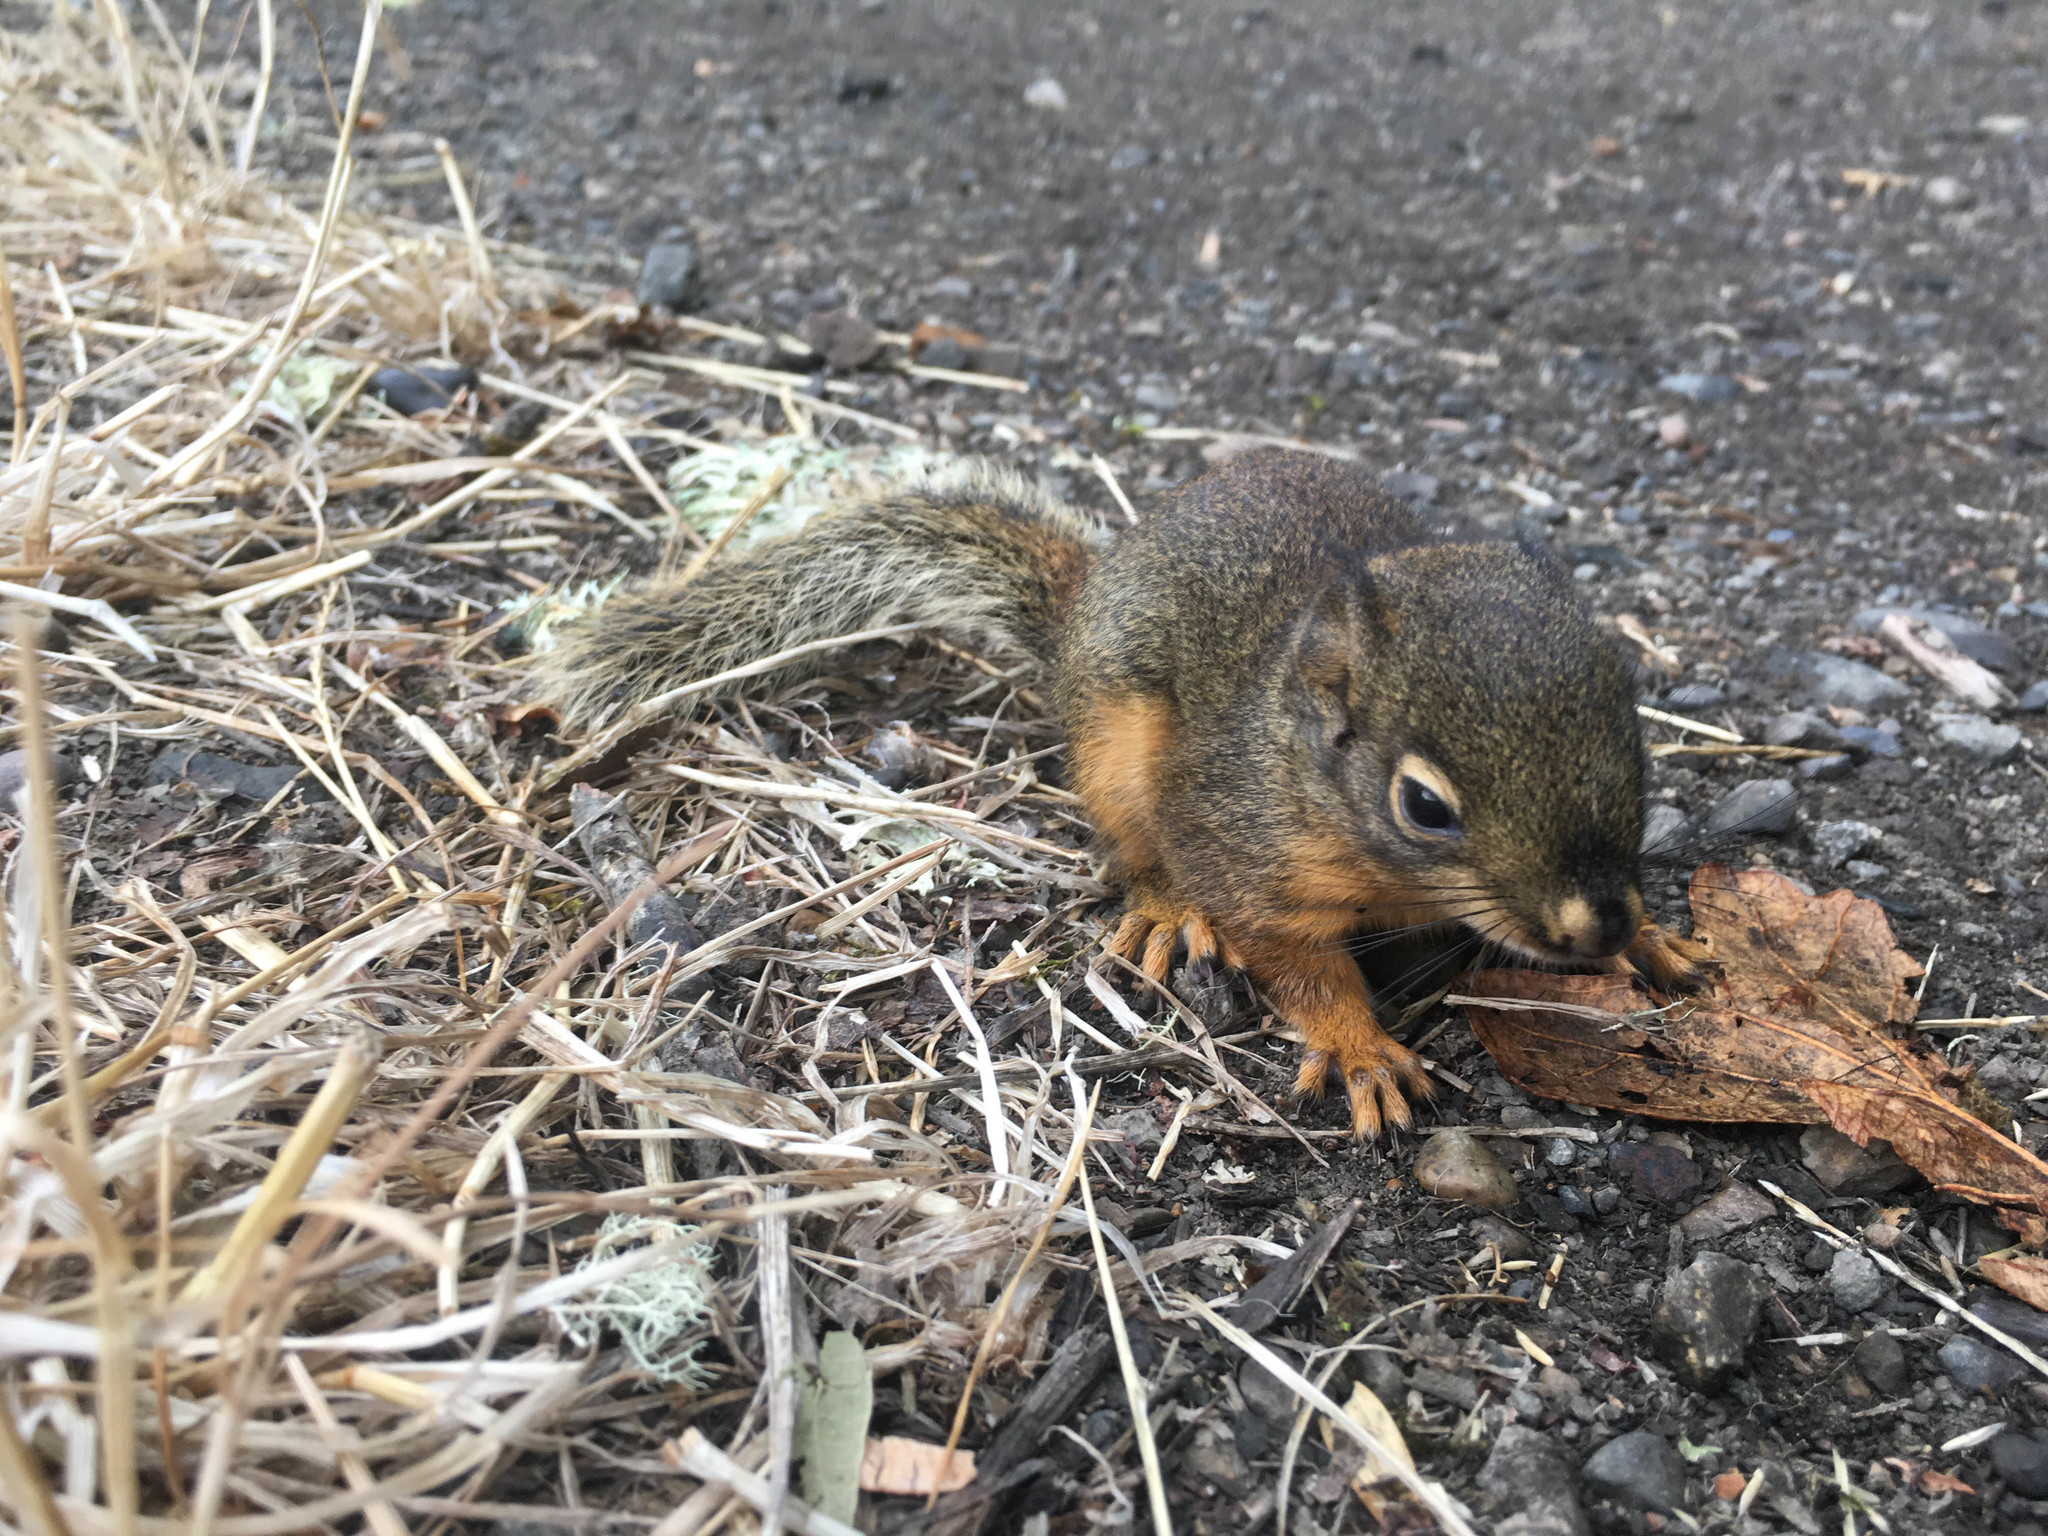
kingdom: Animalia
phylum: Chordata
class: Mammalia
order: Rodentia
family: Sciuridae
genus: Tamiasciurus
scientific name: Tamiasciurus douglasii
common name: Douglas's squirrel
